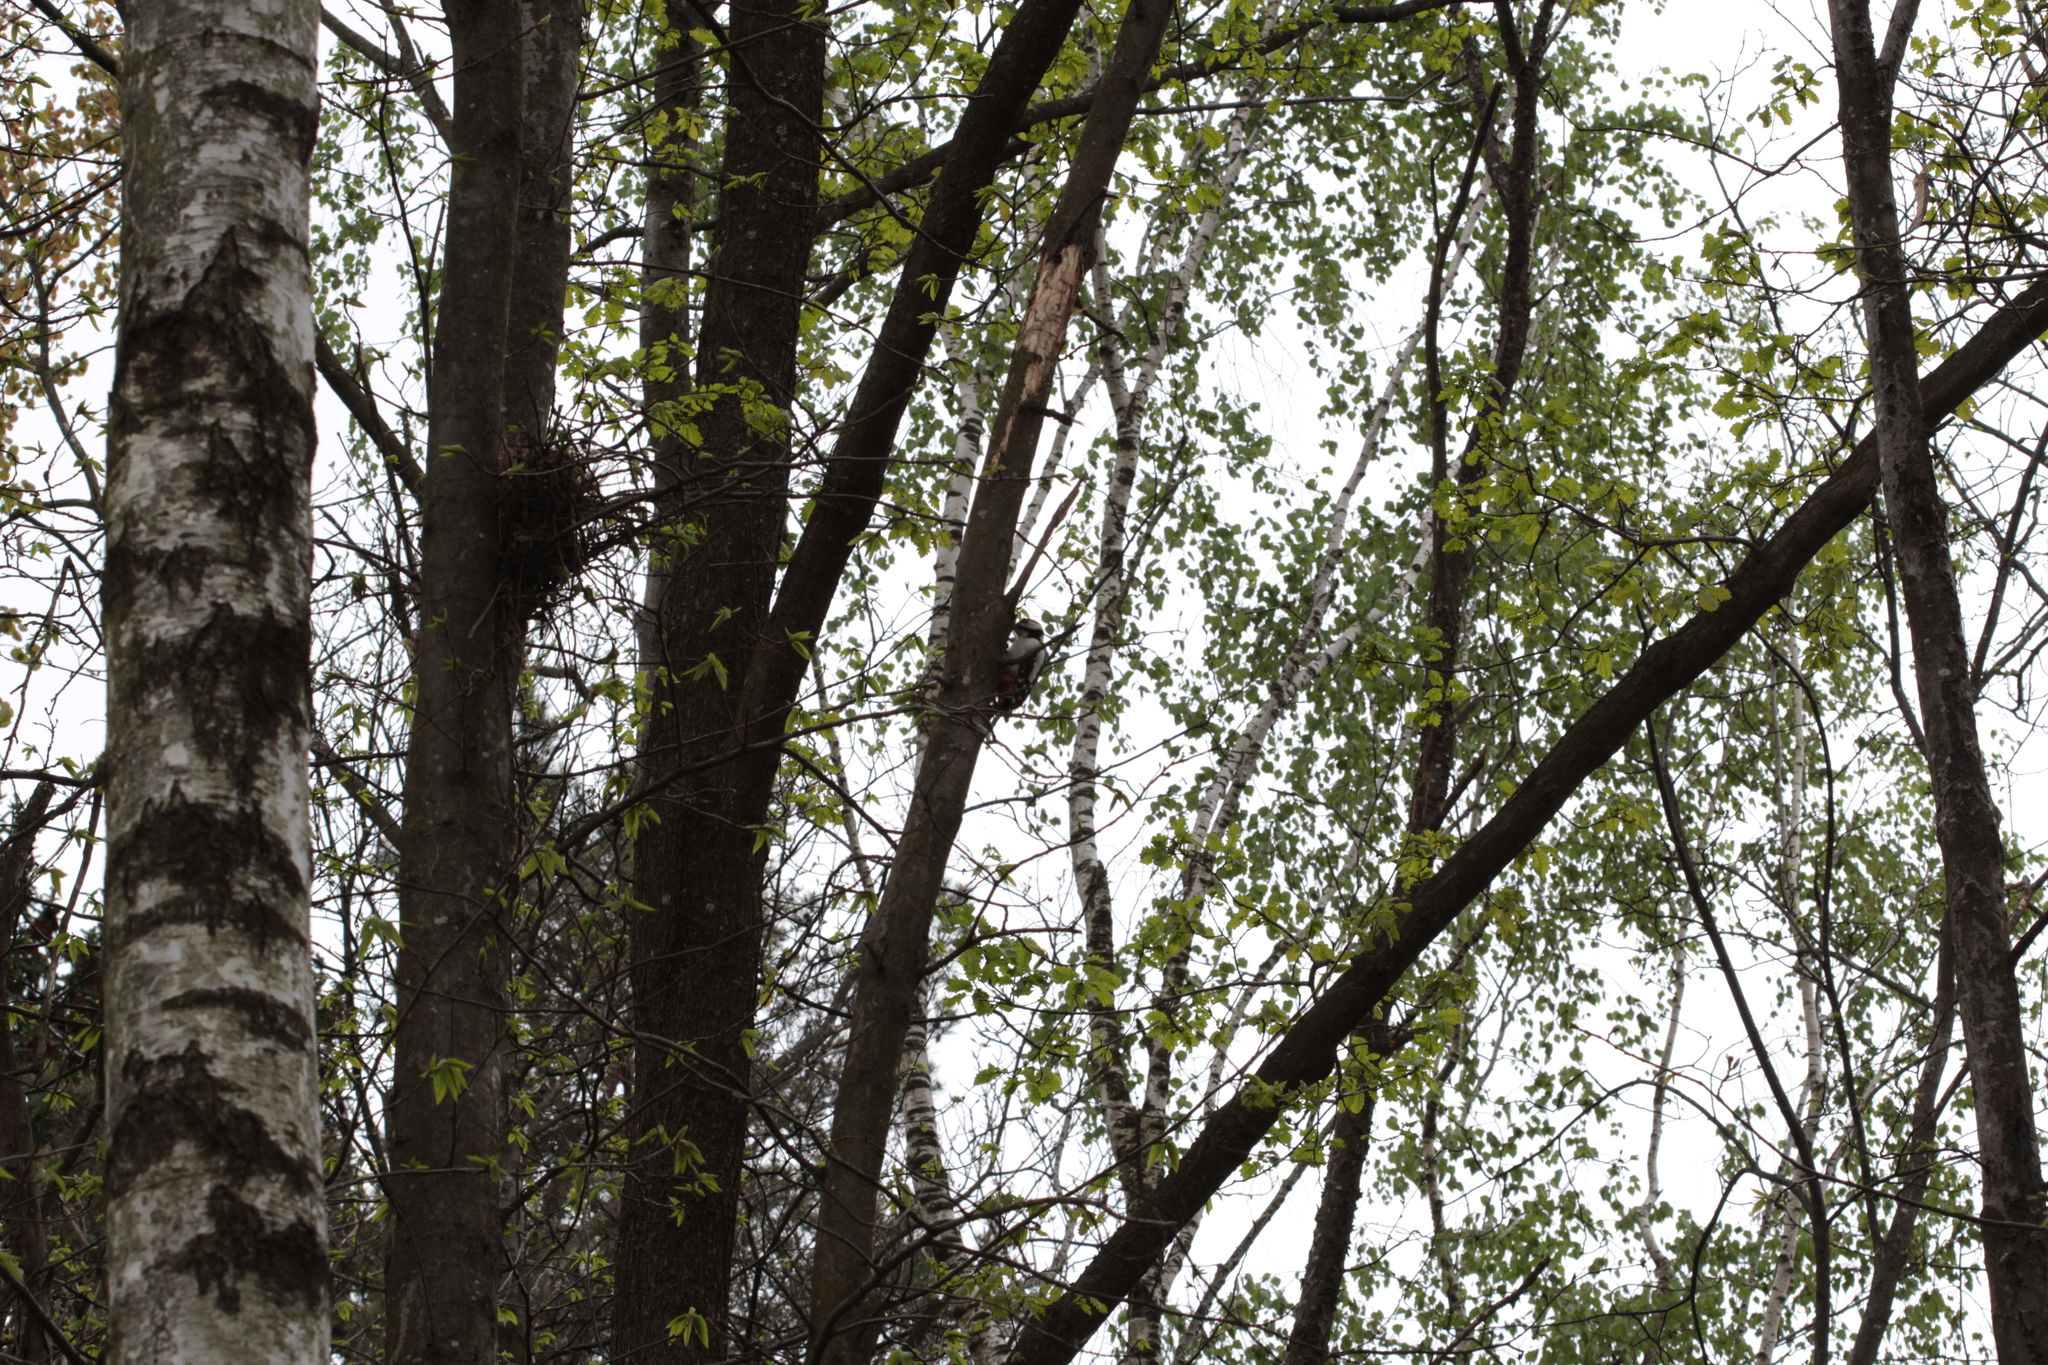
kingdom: Animalia
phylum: Chordata
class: Aves
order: Piciformes
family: Picidae
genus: Dendrocopos
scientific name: Dendrocopos major
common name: Great spotted woodpecker
